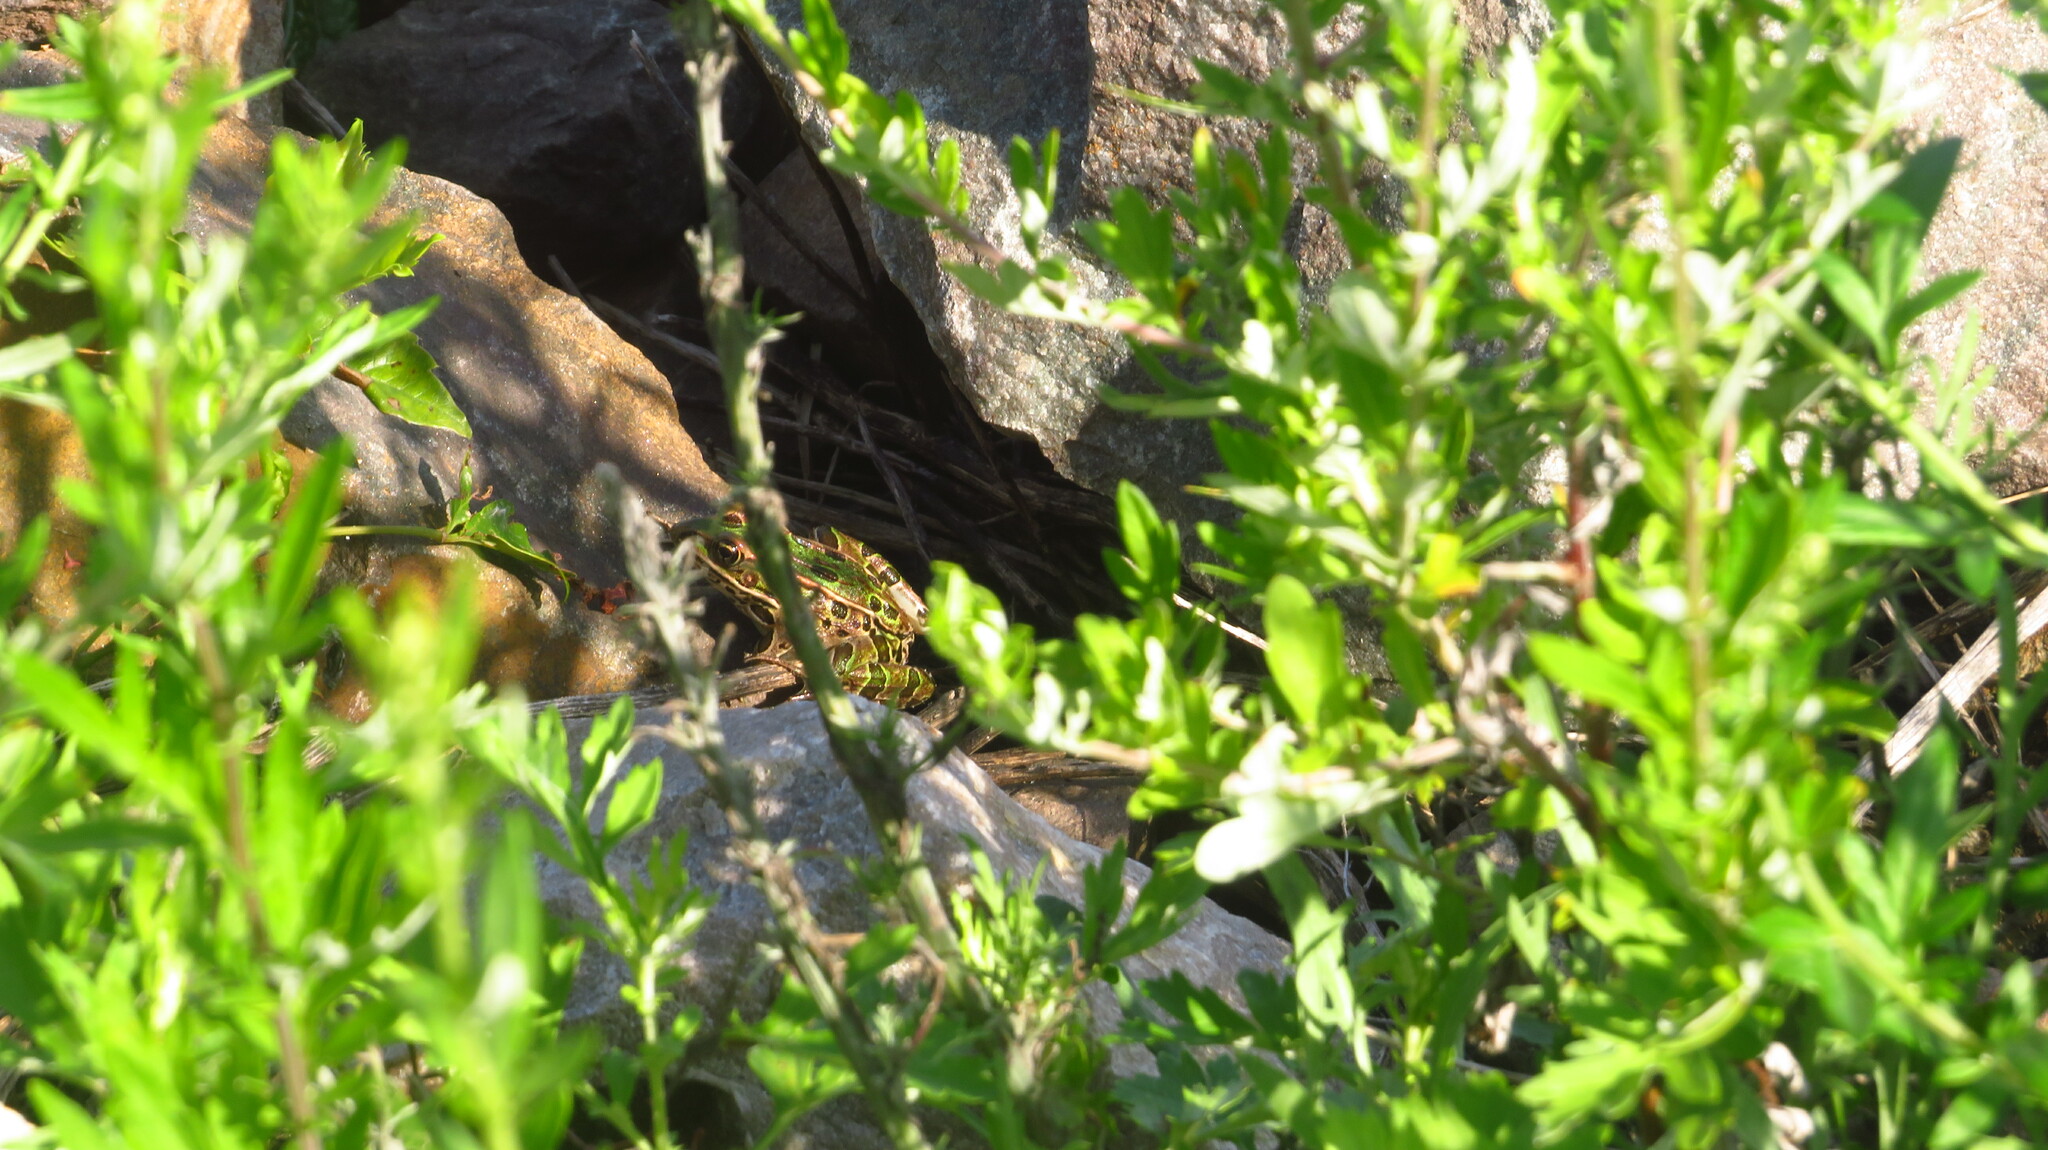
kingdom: Animalia
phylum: Chordata
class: Amphibia
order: Anura
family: Ranidae
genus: Lithobates
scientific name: Lithobates pipiens
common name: Northern leopard frog
